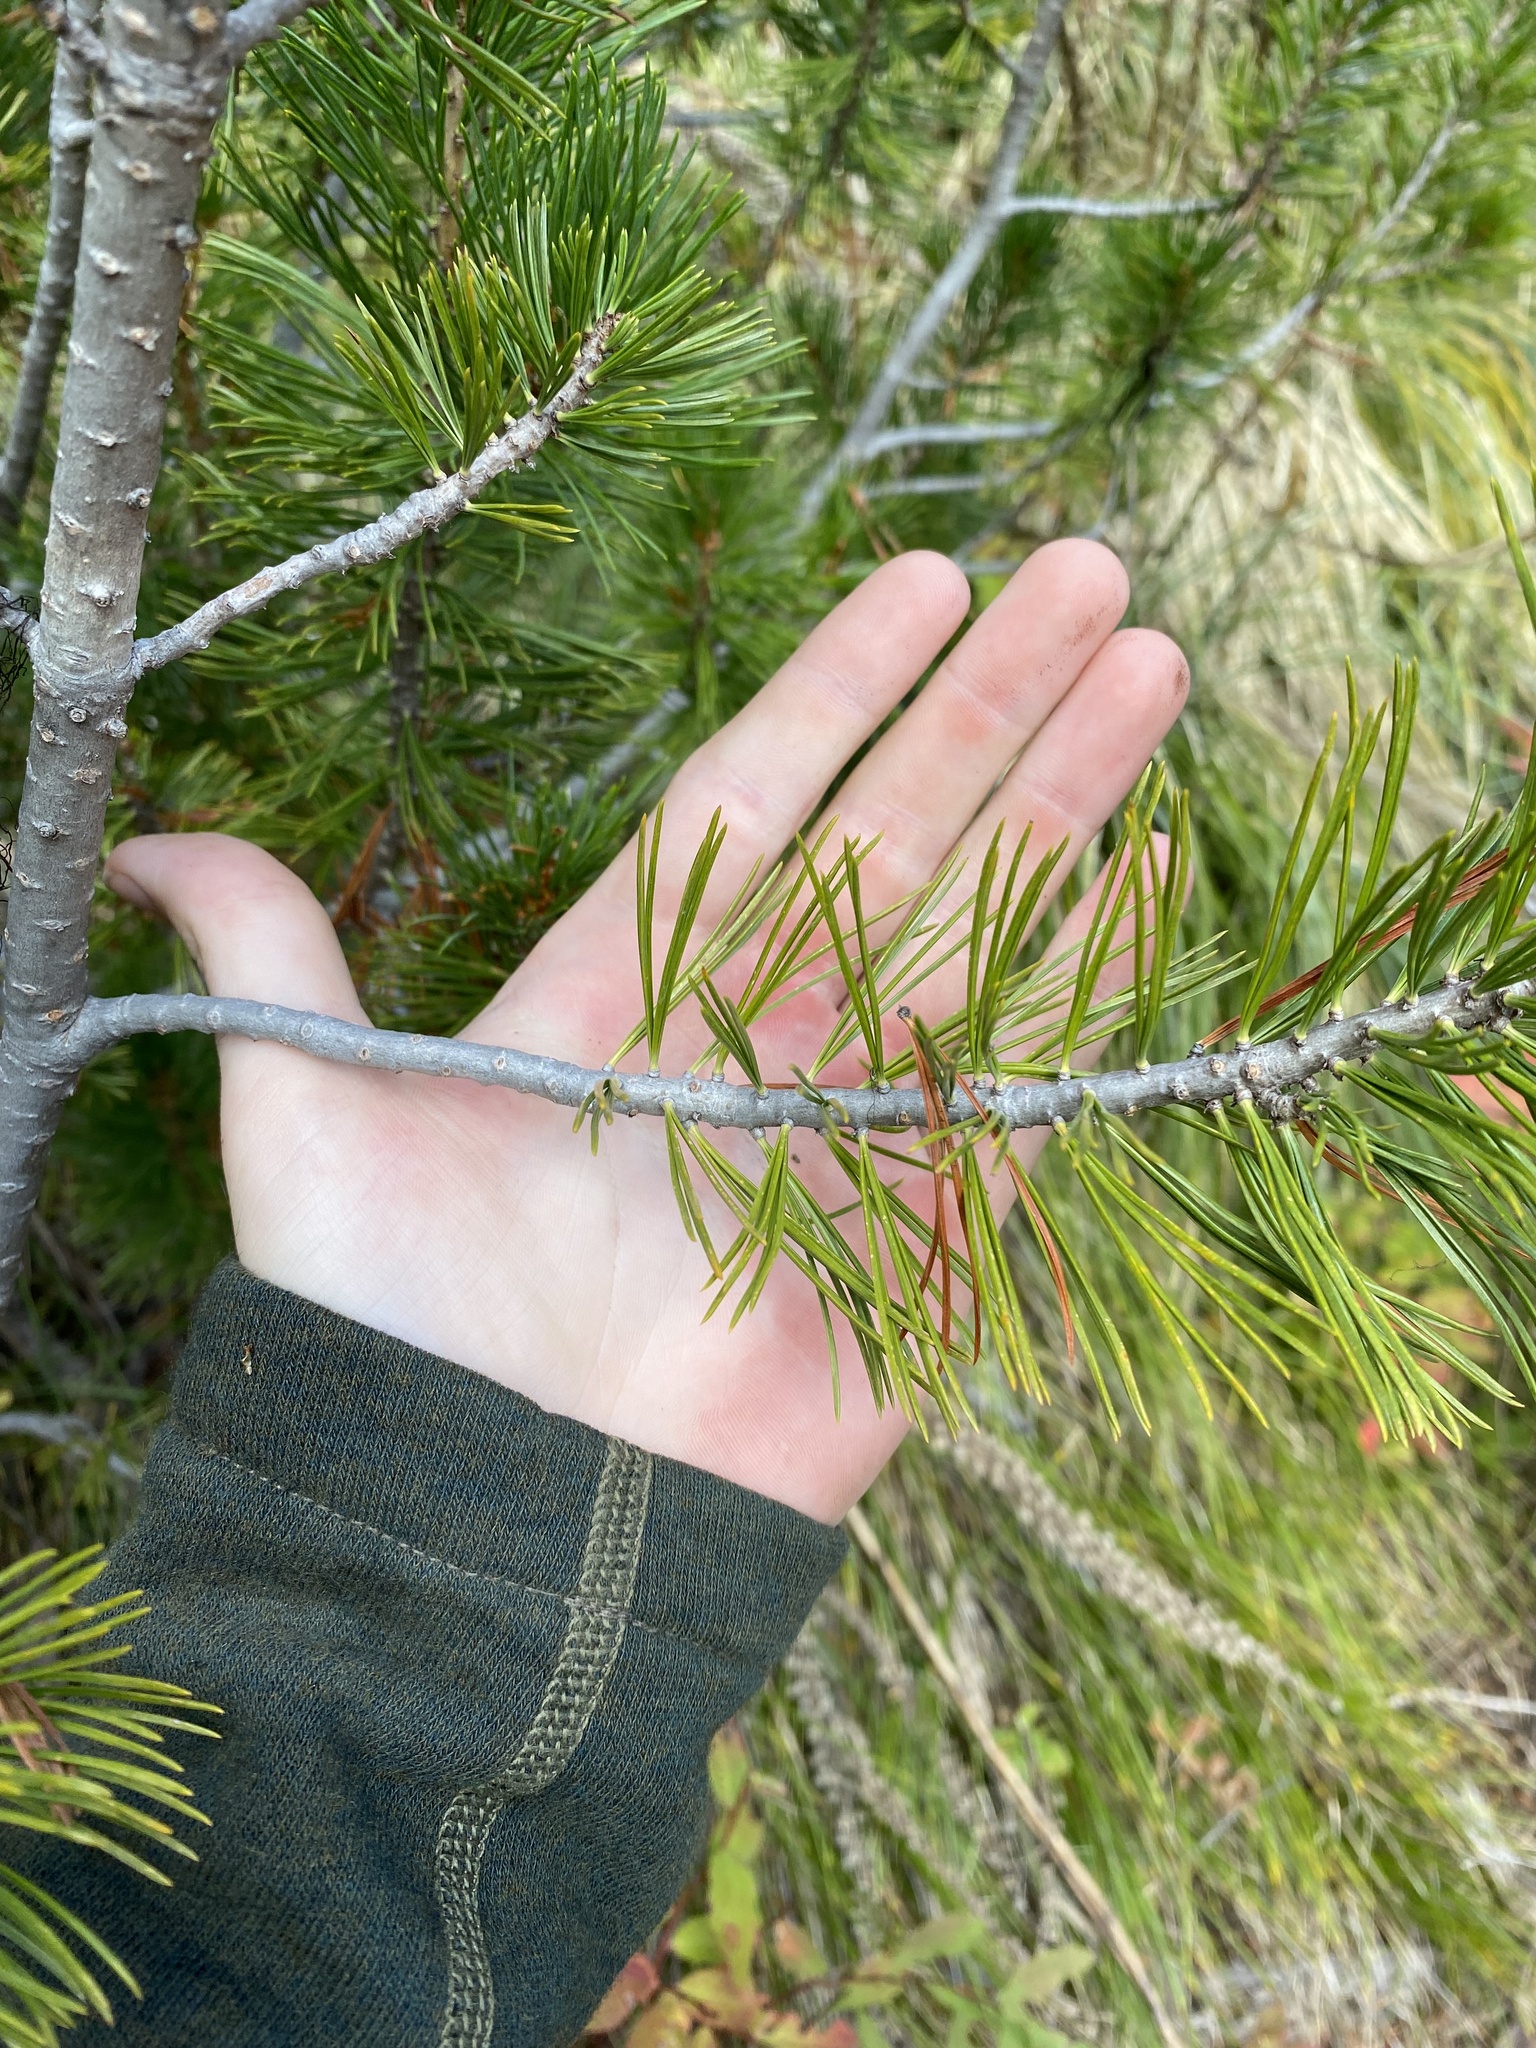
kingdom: Plantae
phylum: Tracheophyta
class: Pinopsida
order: Pinales
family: Pinaceae
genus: Pinus
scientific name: Pinus albicaulis
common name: Whitebark pine
